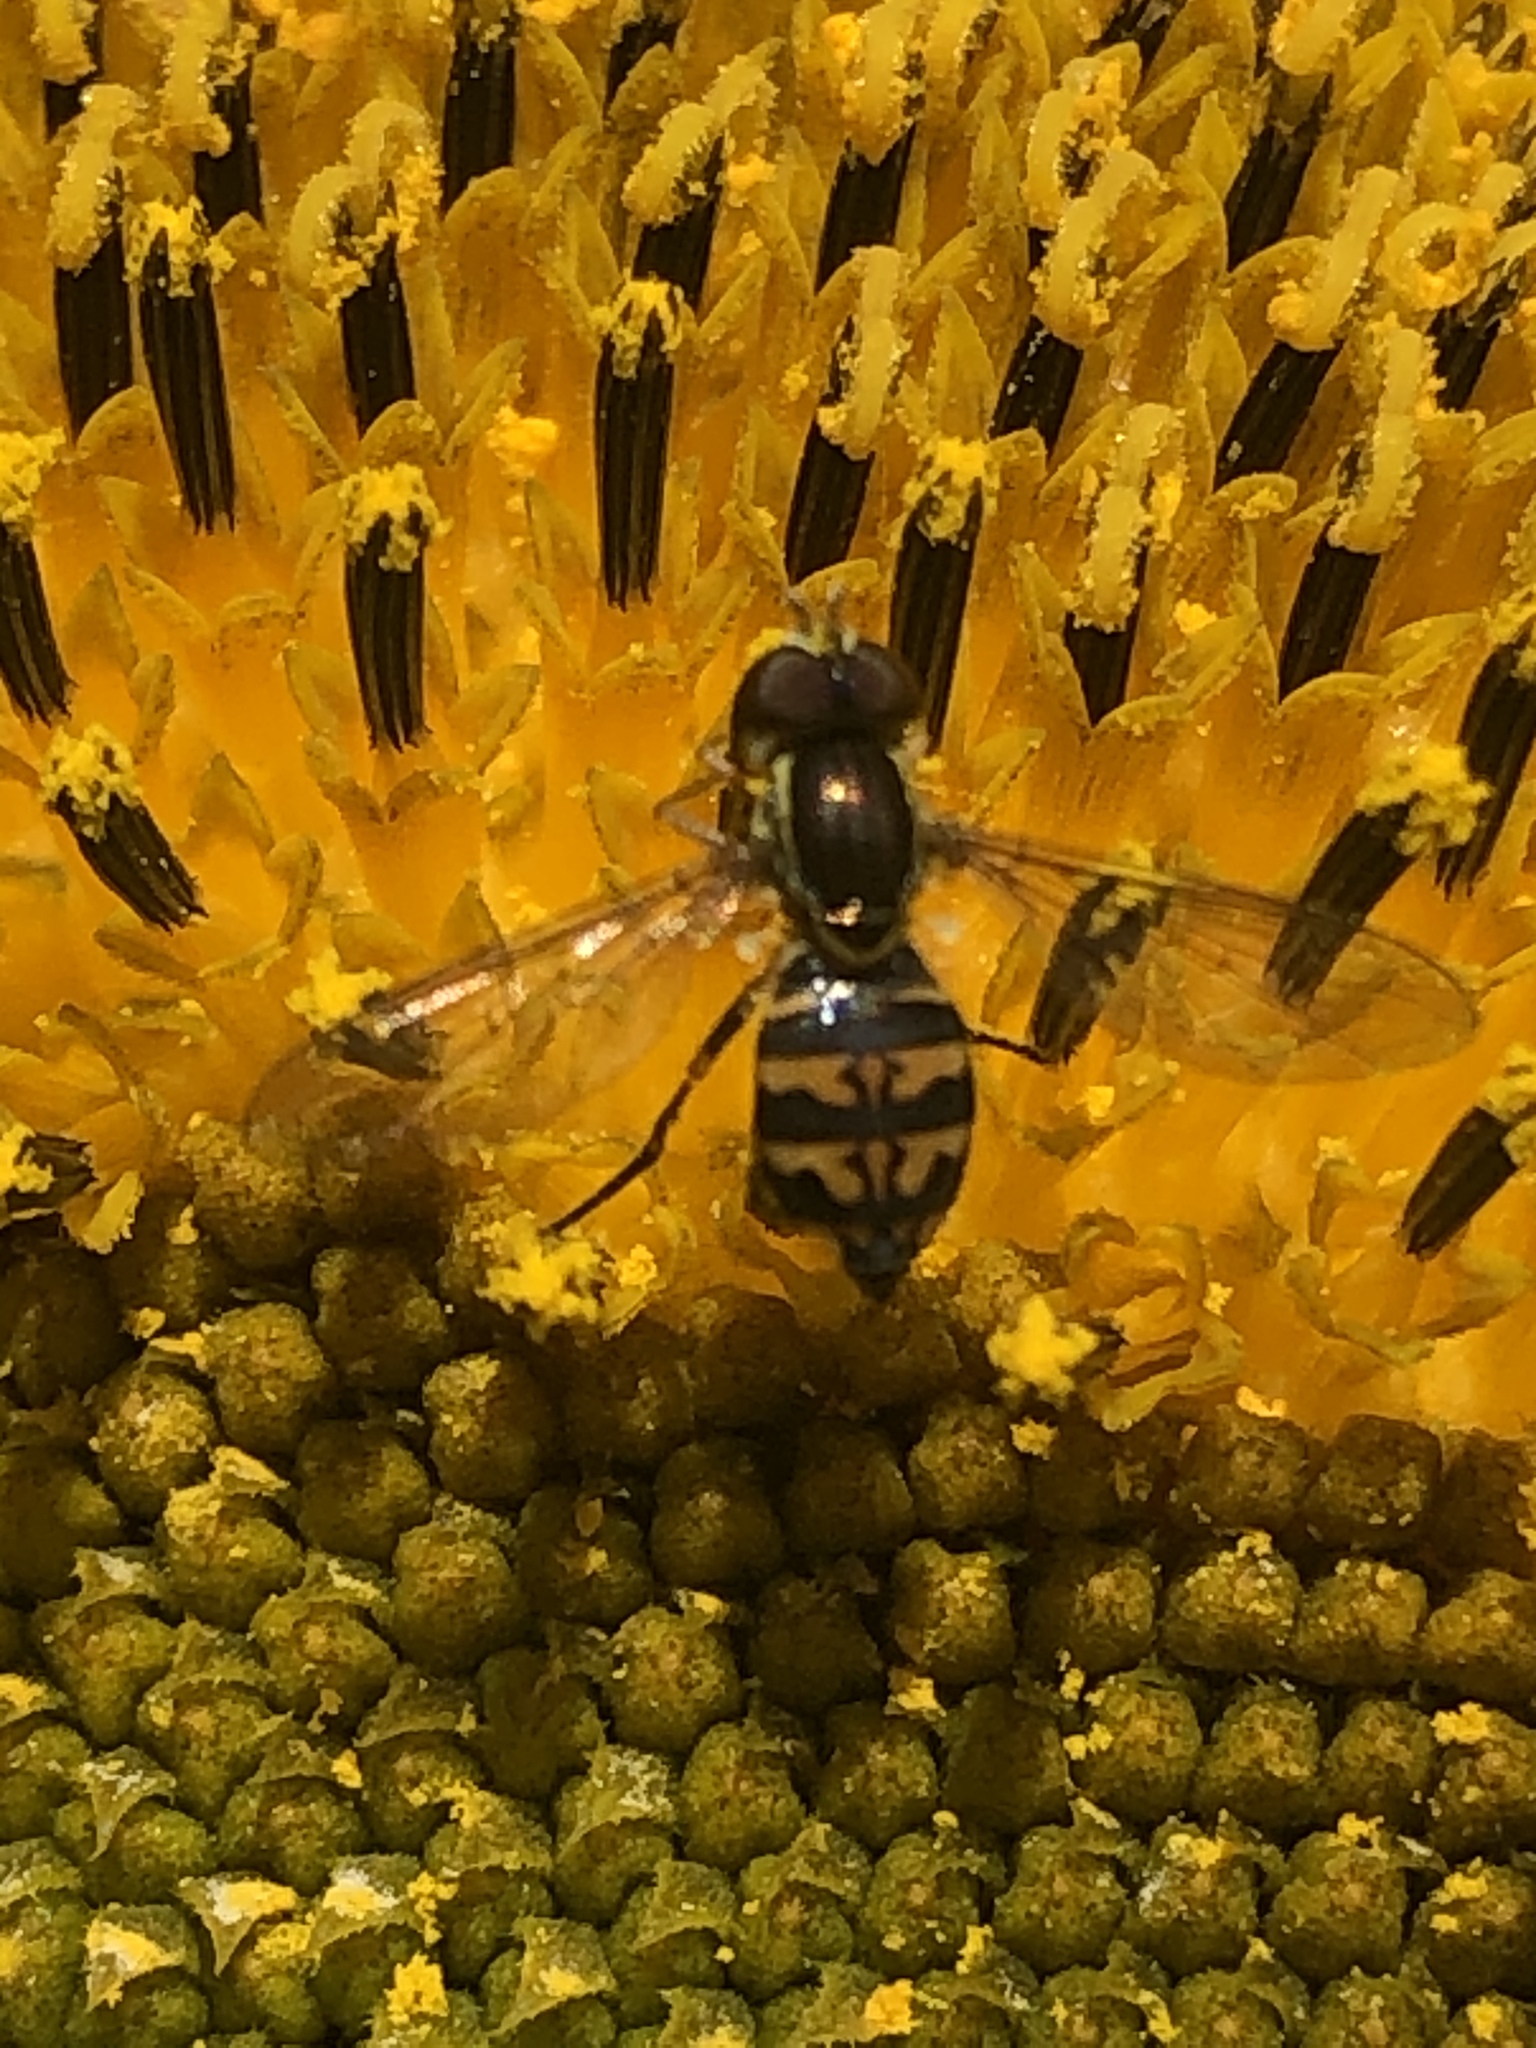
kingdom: Animalia
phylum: Arthropoda
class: Insecta
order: Diptera
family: Syrphidae
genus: Toxomerus
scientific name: Toxomerus occidentalis
